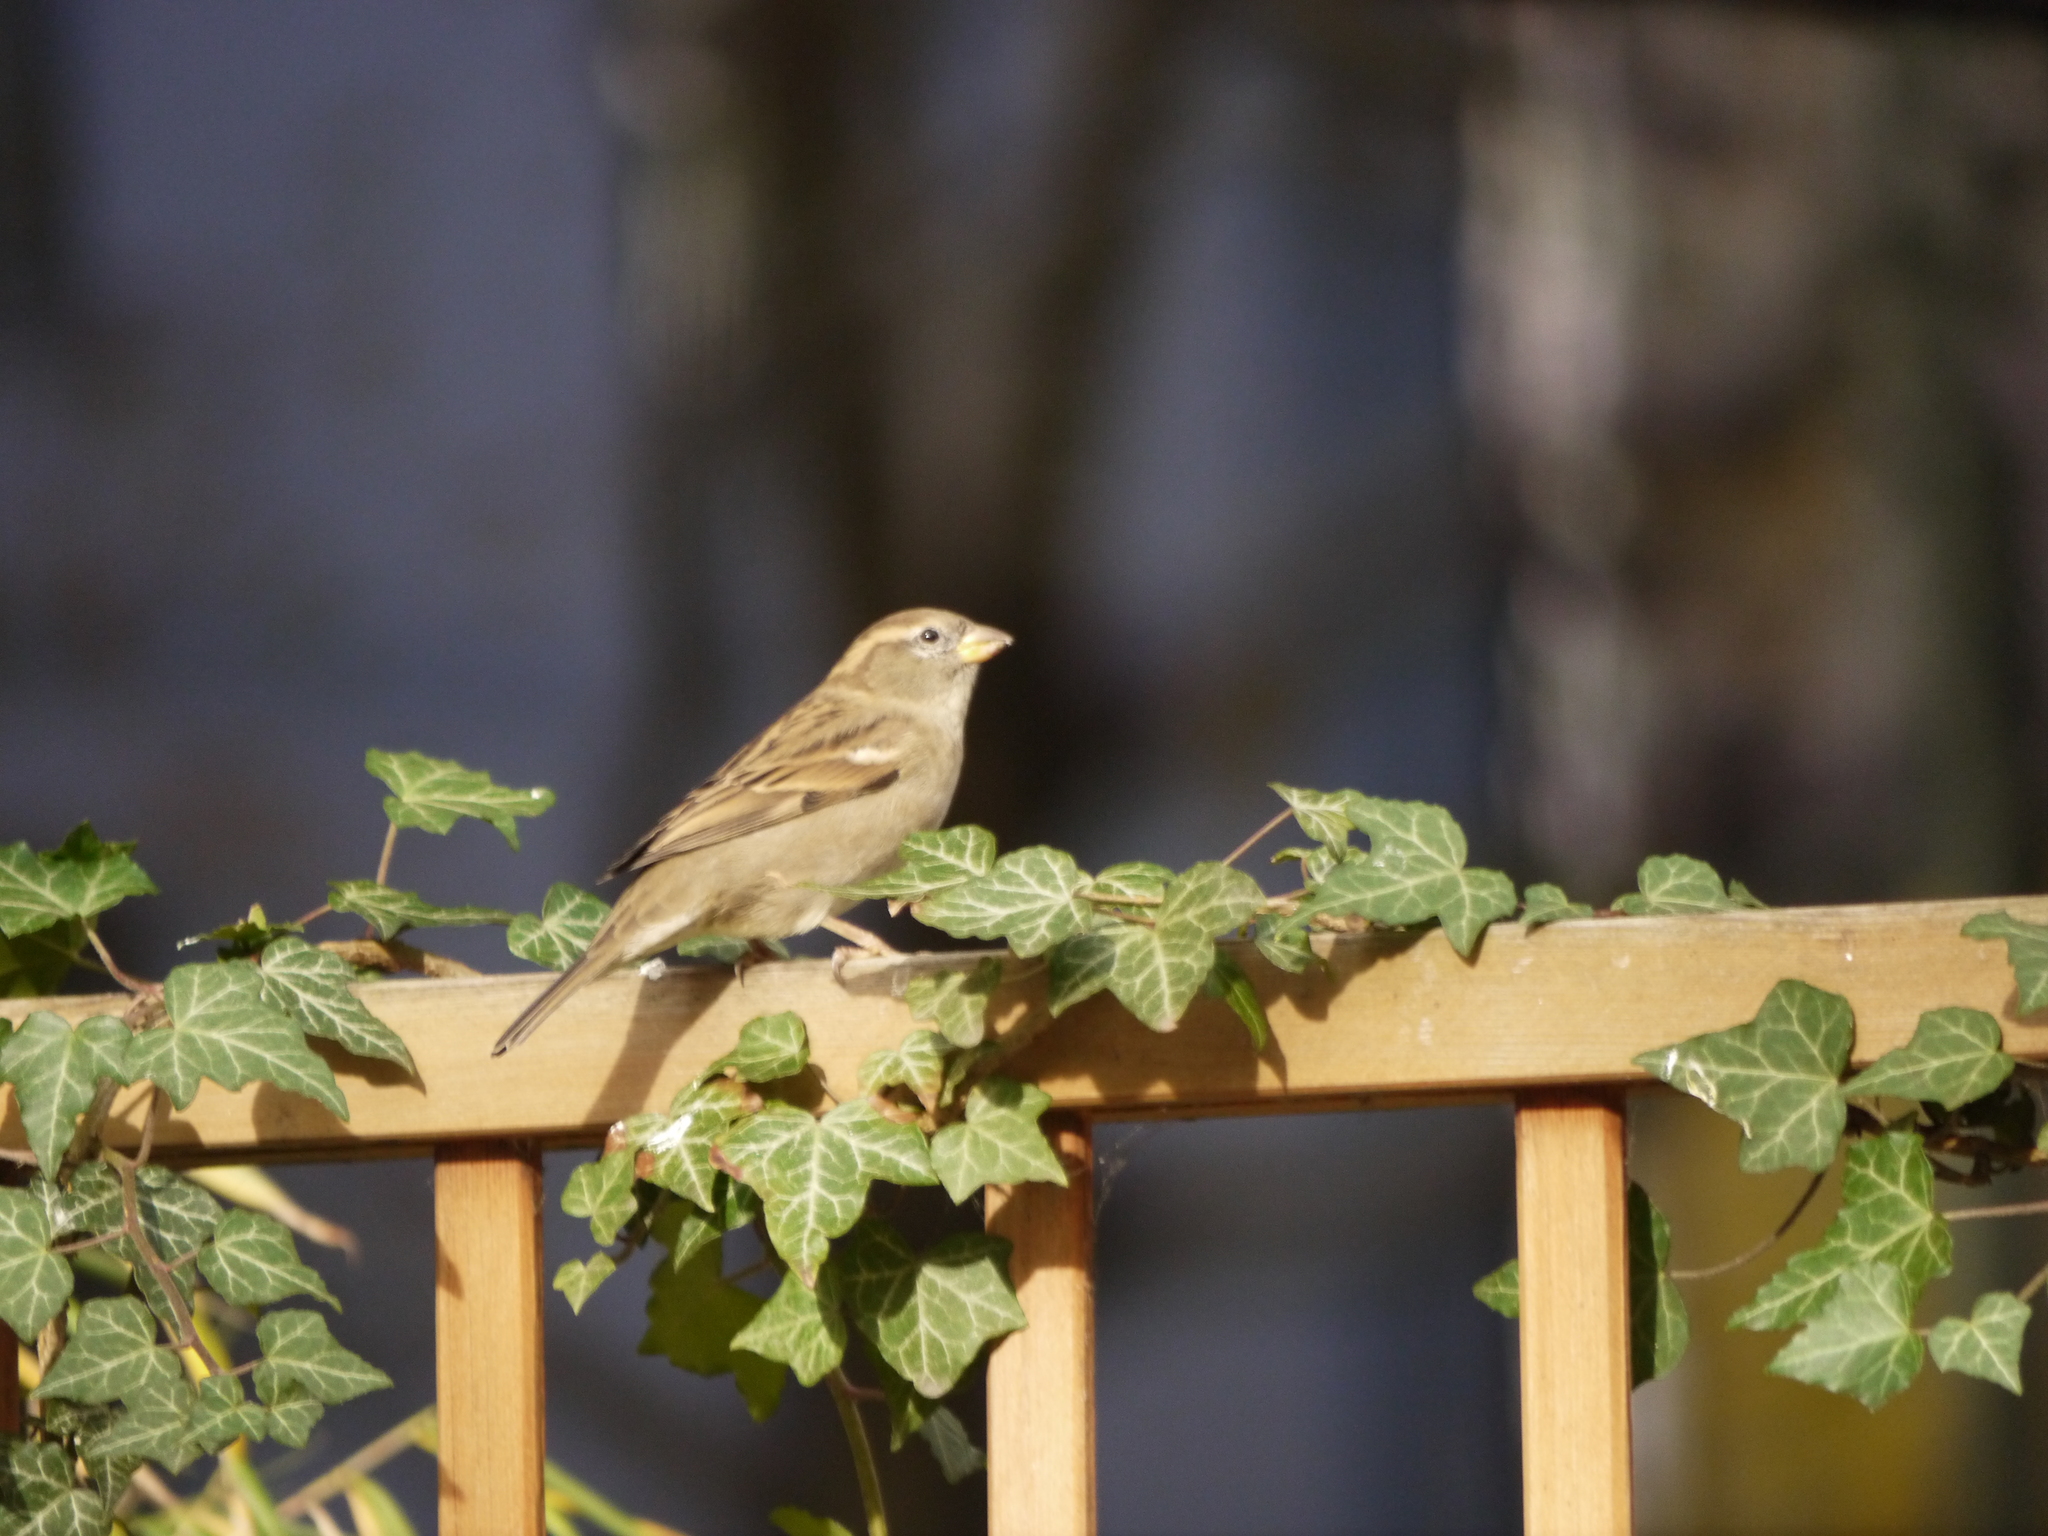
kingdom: Animalia
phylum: Chordata
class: Aves
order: Passeriformes
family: Passeridae
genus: Passer
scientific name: Passer domesticus
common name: House sparrow
